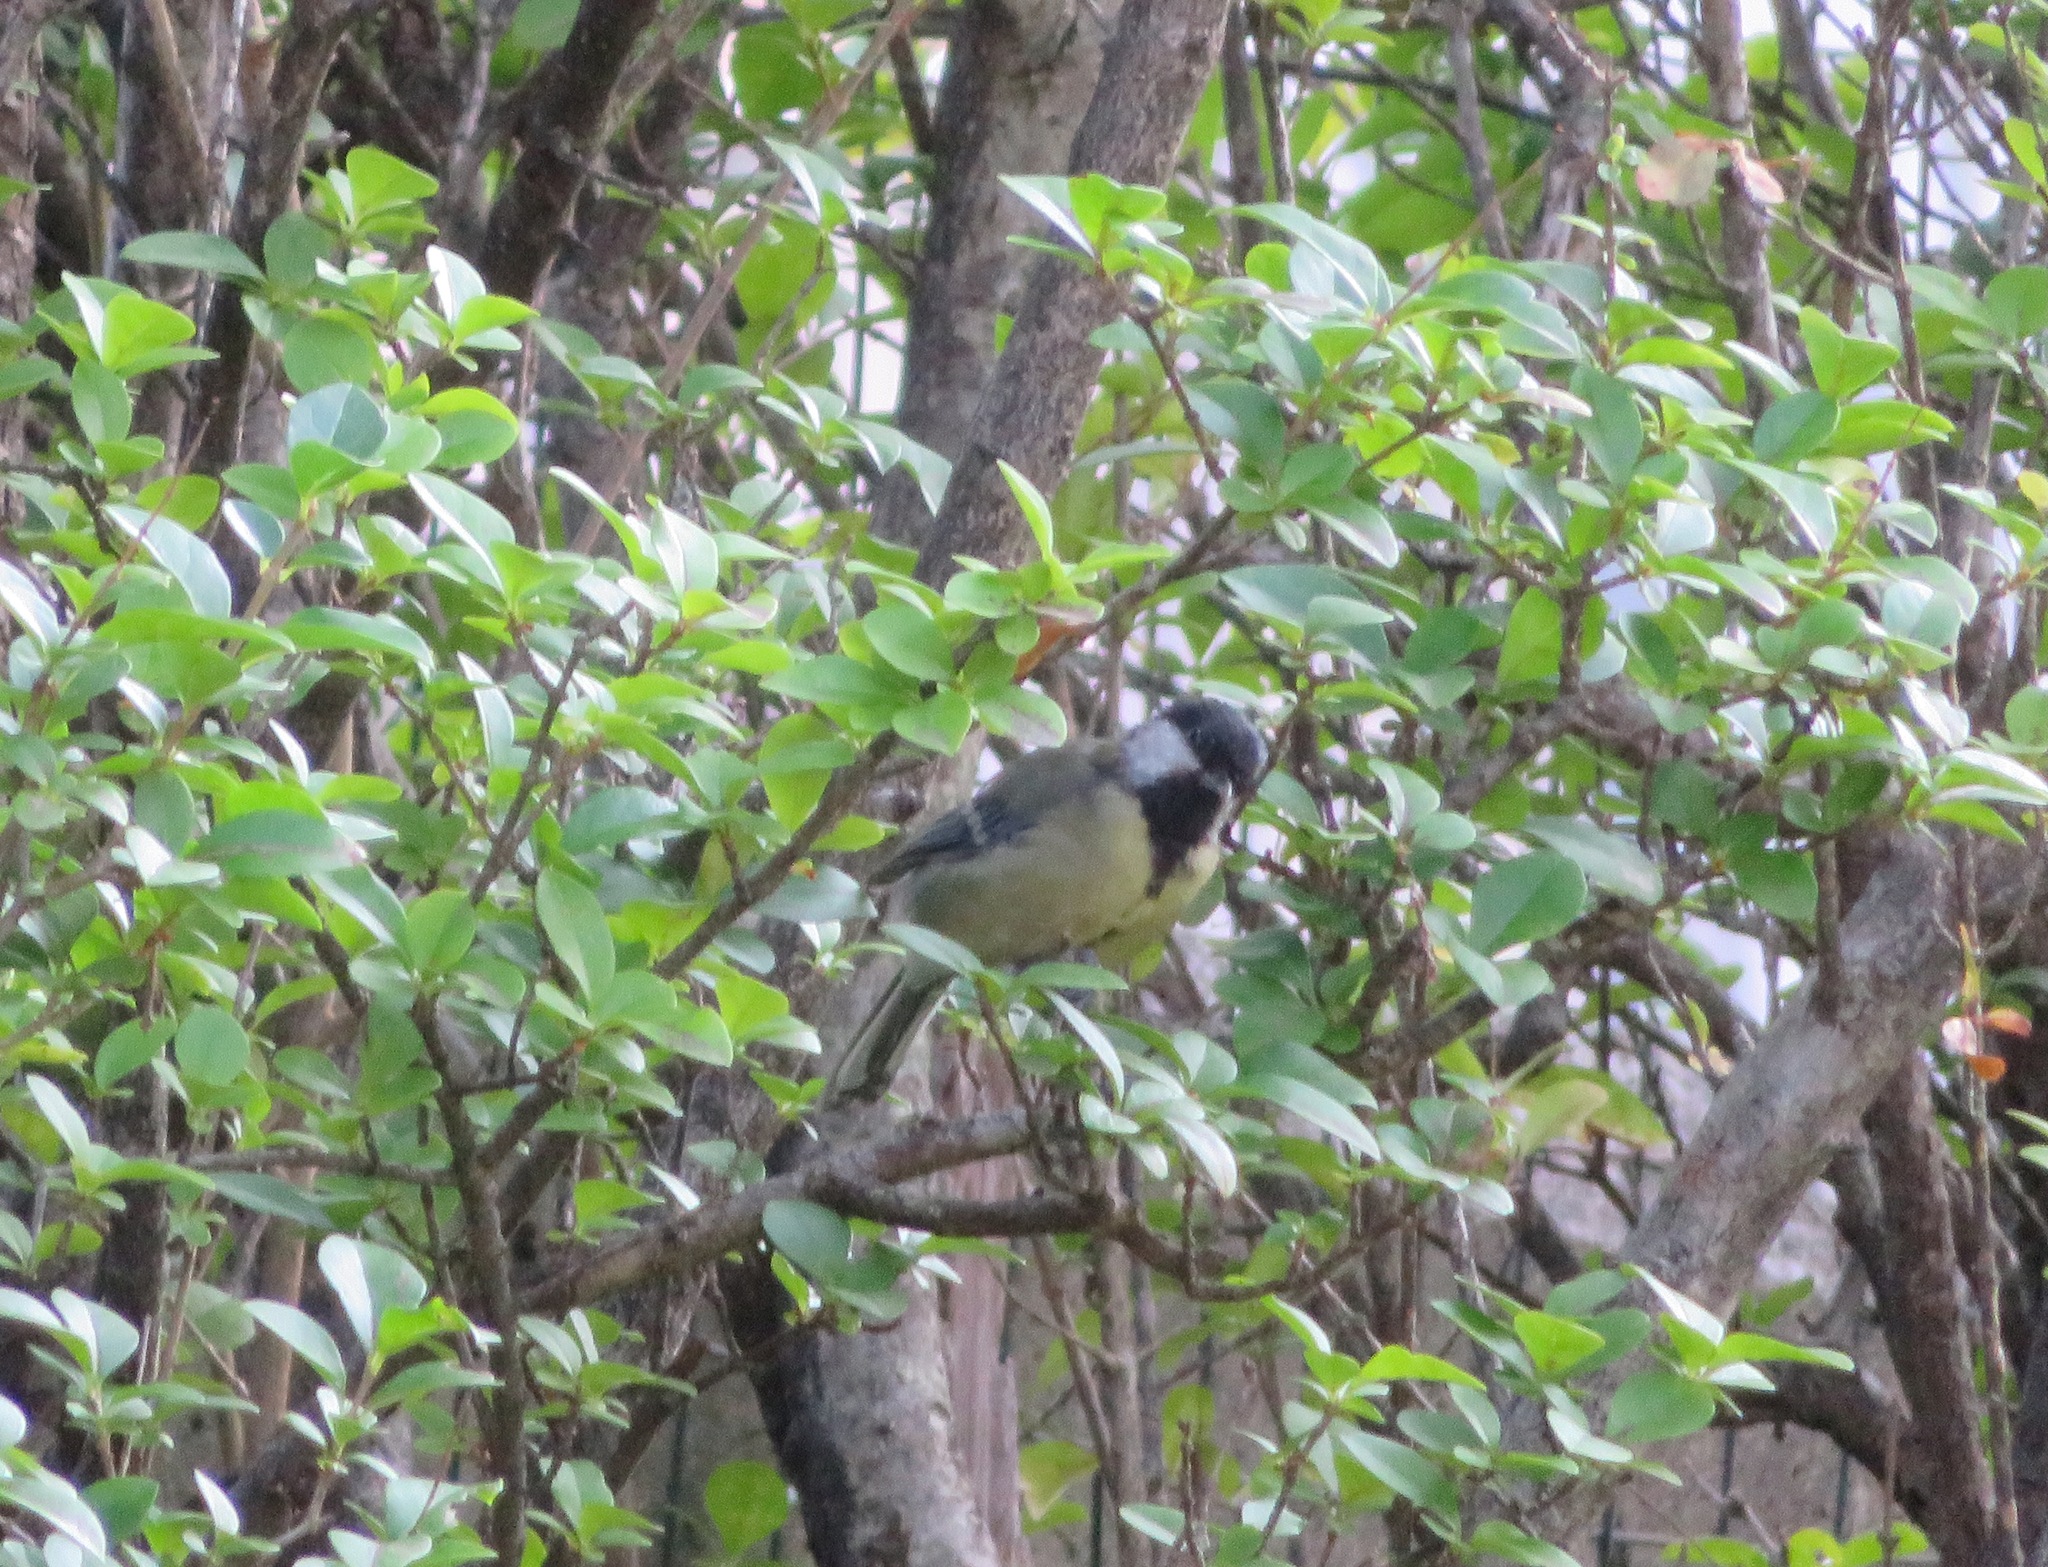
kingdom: Animalia
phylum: Chordata
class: Aves
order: Passeriformes
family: Paridae
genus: Parus
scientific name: Parus major
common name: Great tit
